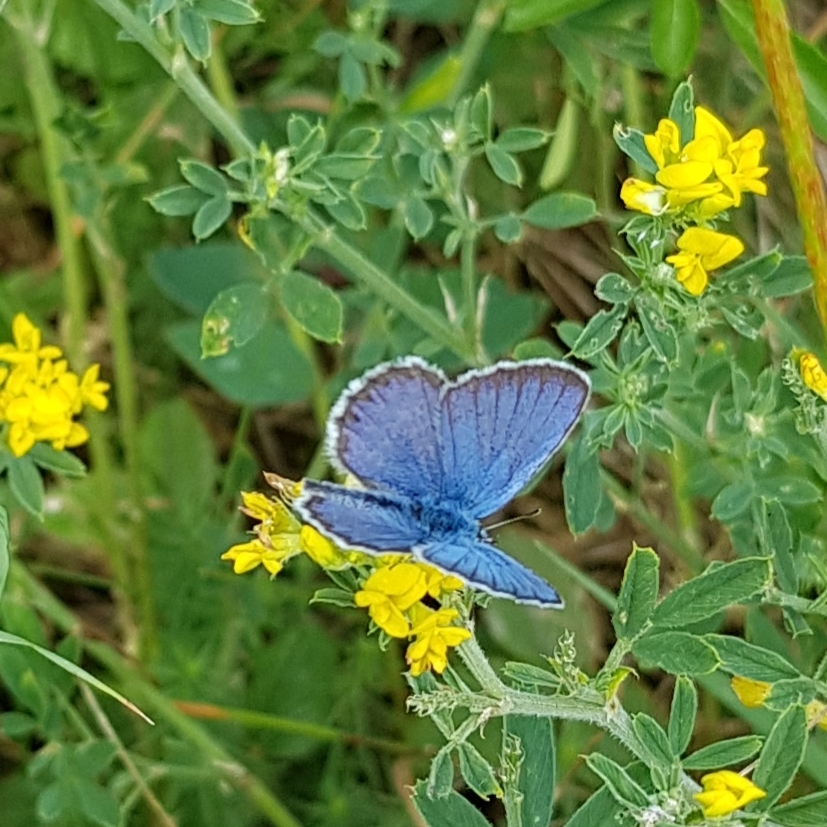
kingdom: Animalia
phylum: Arthropoda
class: Insecta
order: Lepidoptera
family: Lycaenidae
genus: Lycaeides
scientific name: Lycaeides idas
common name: Northern blue
